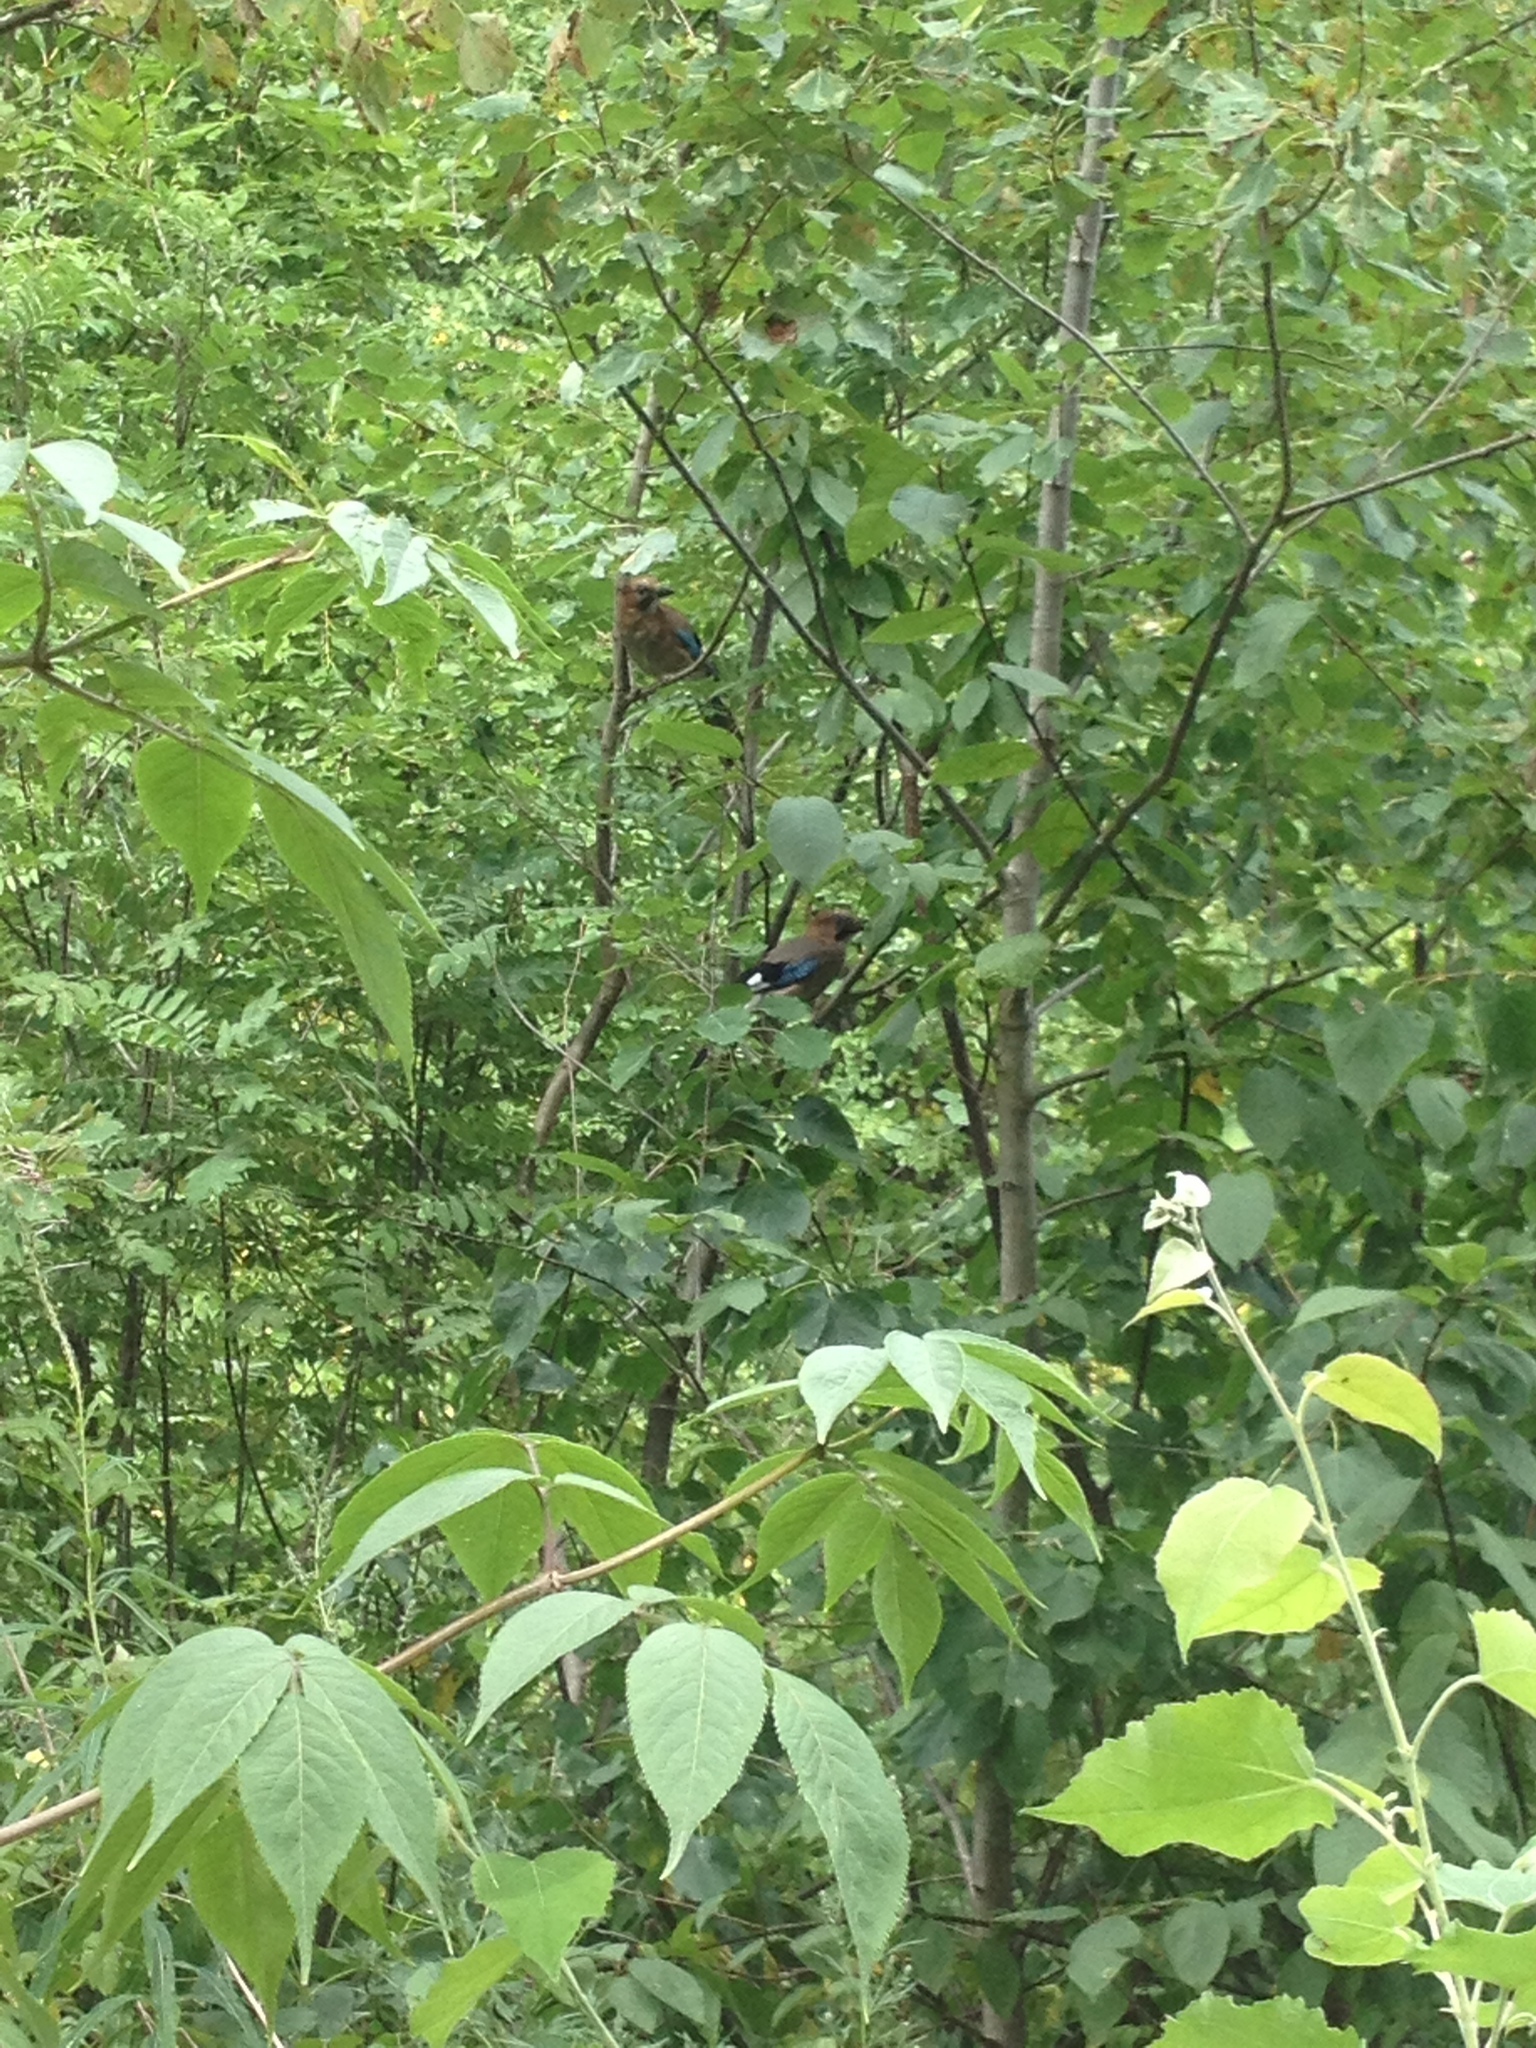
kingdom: Animalia
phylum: Chordata
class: Aves
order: Passeriformes
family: Corvidae
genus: Garrulus
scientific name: Garrulus glandarius
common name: Eurasian jay
